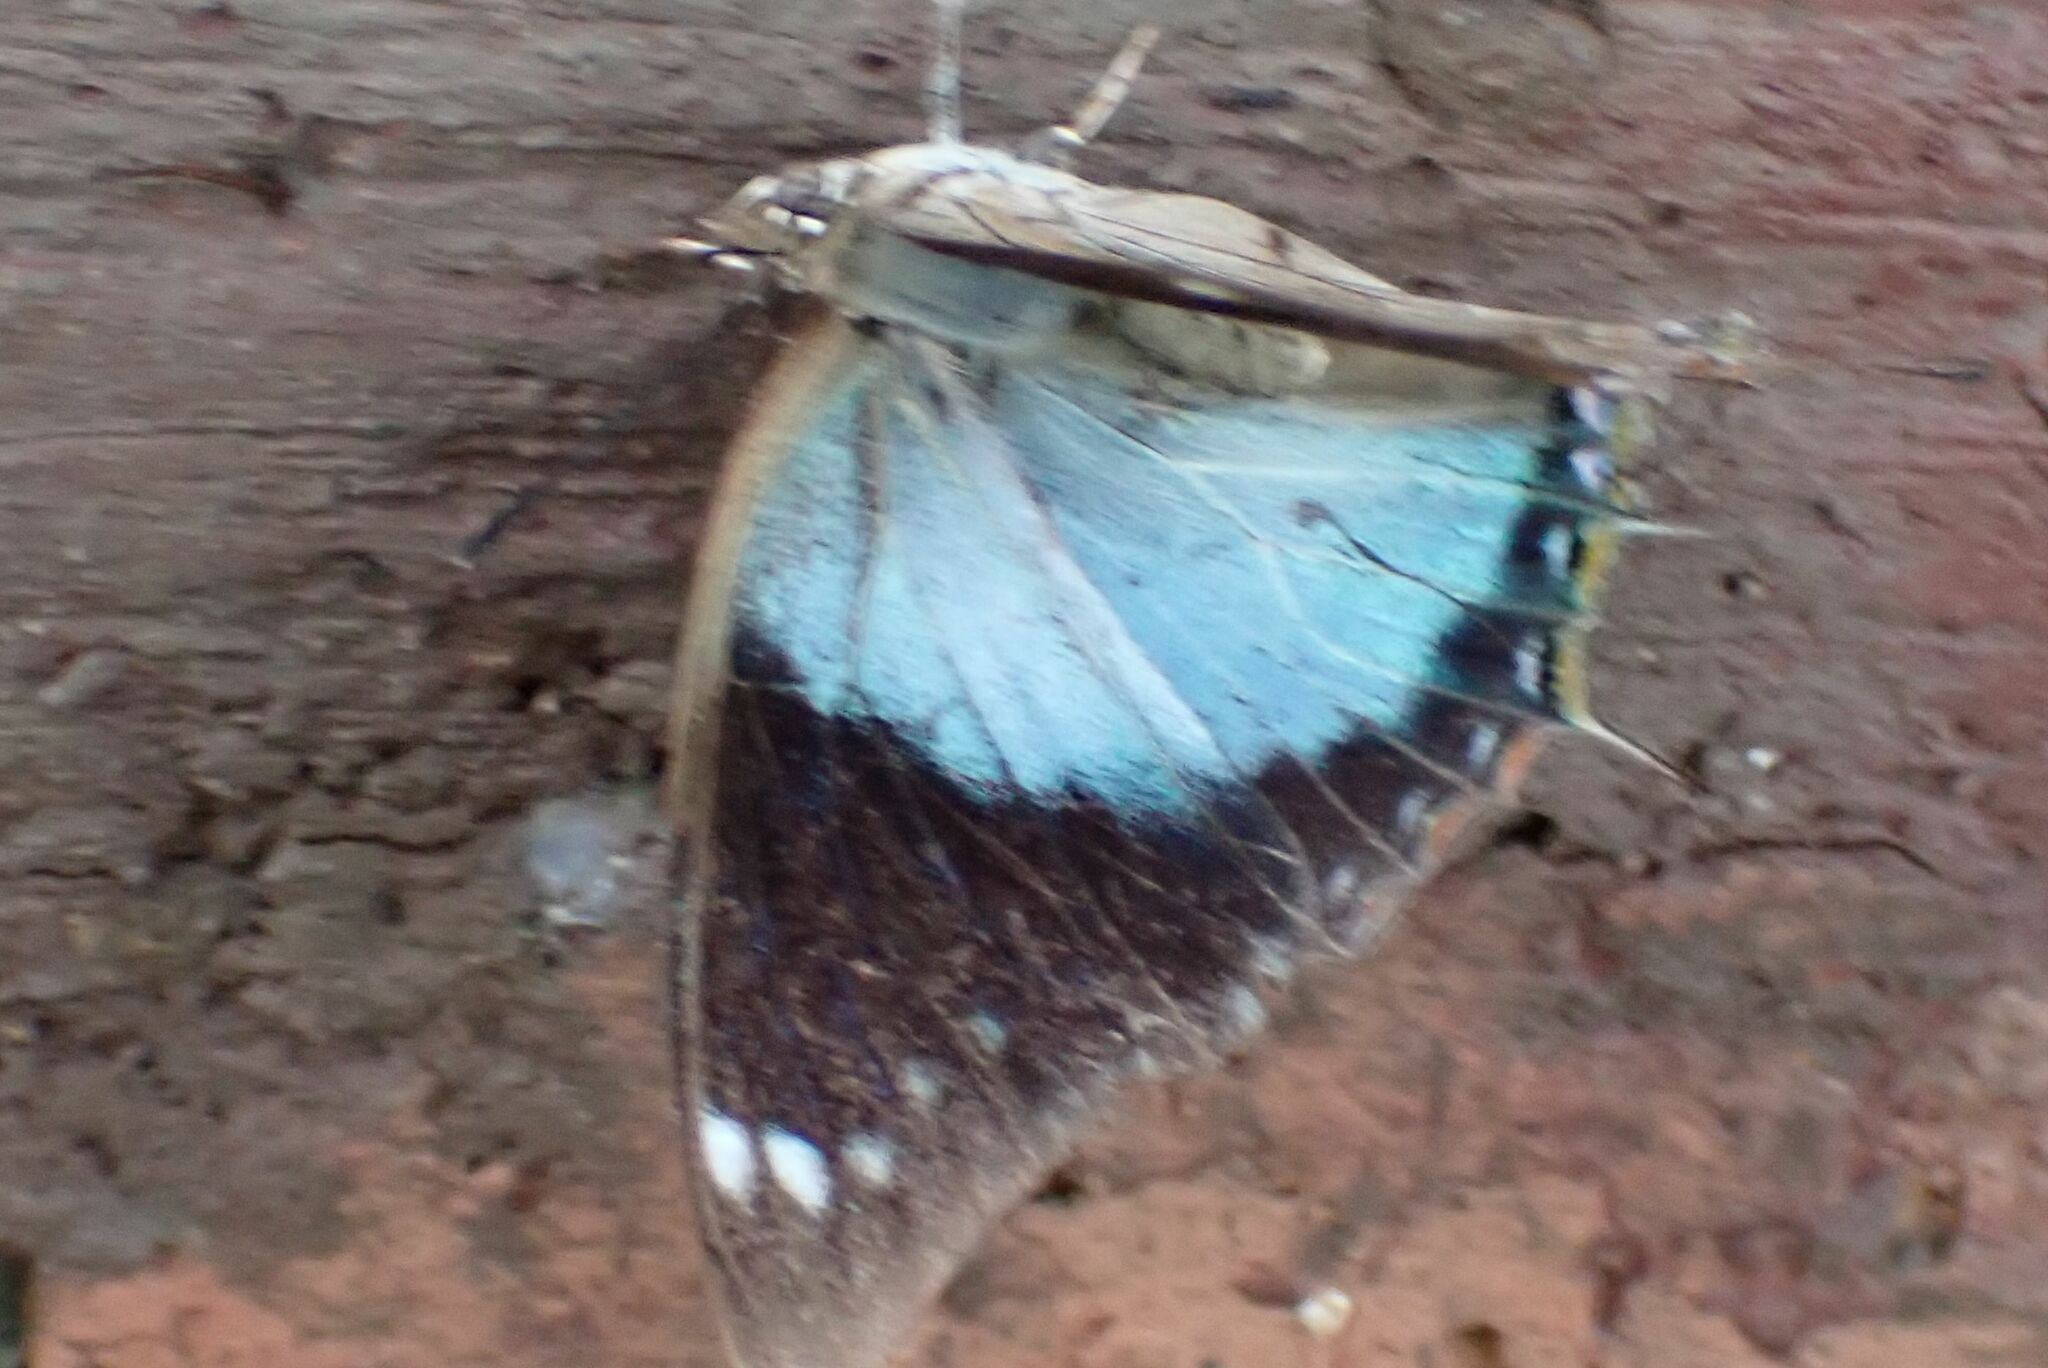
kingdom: Animalia
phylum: Arthropoda
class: Insecta
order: Lepidoptera
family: Nymphalidae
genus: Charaxes
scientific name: Charaxes viola
